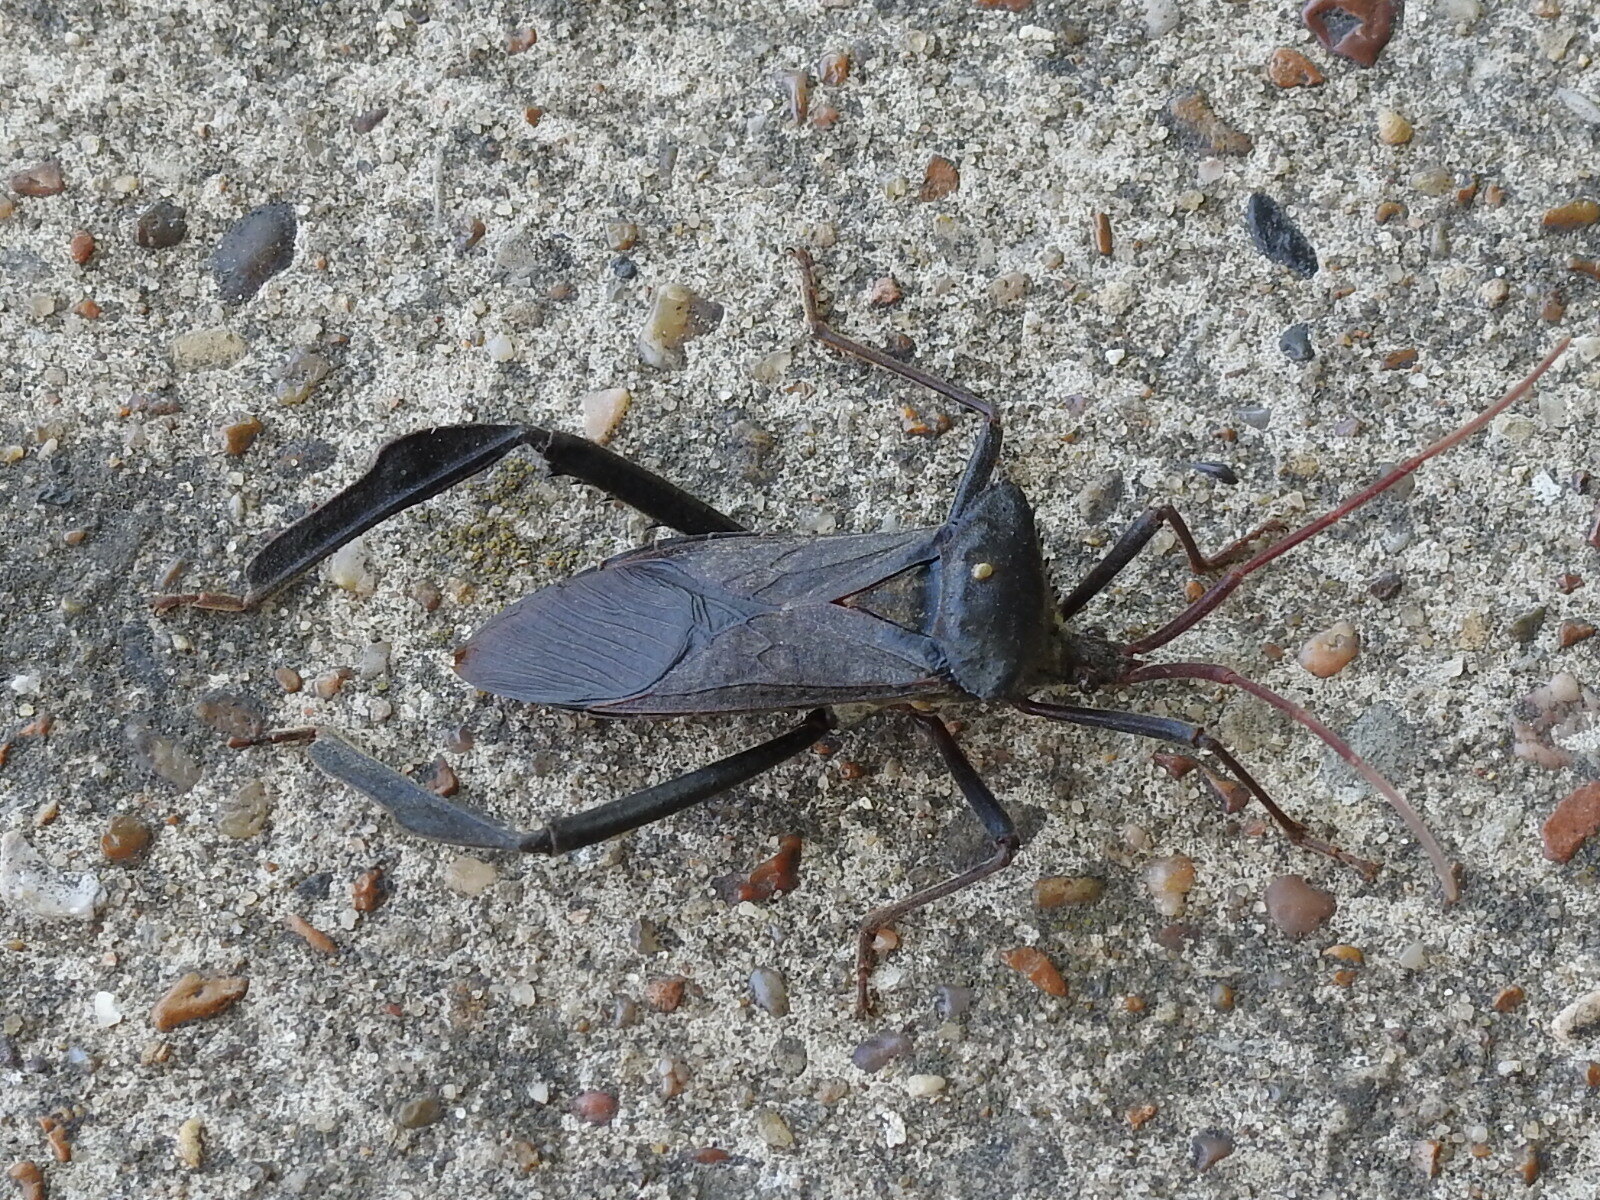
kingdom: Animalia
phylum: Arthropoda
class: Insecta
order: Hemiptera
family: Coreidae
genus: Acanthocephala
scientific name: Acanthocephala declivis
